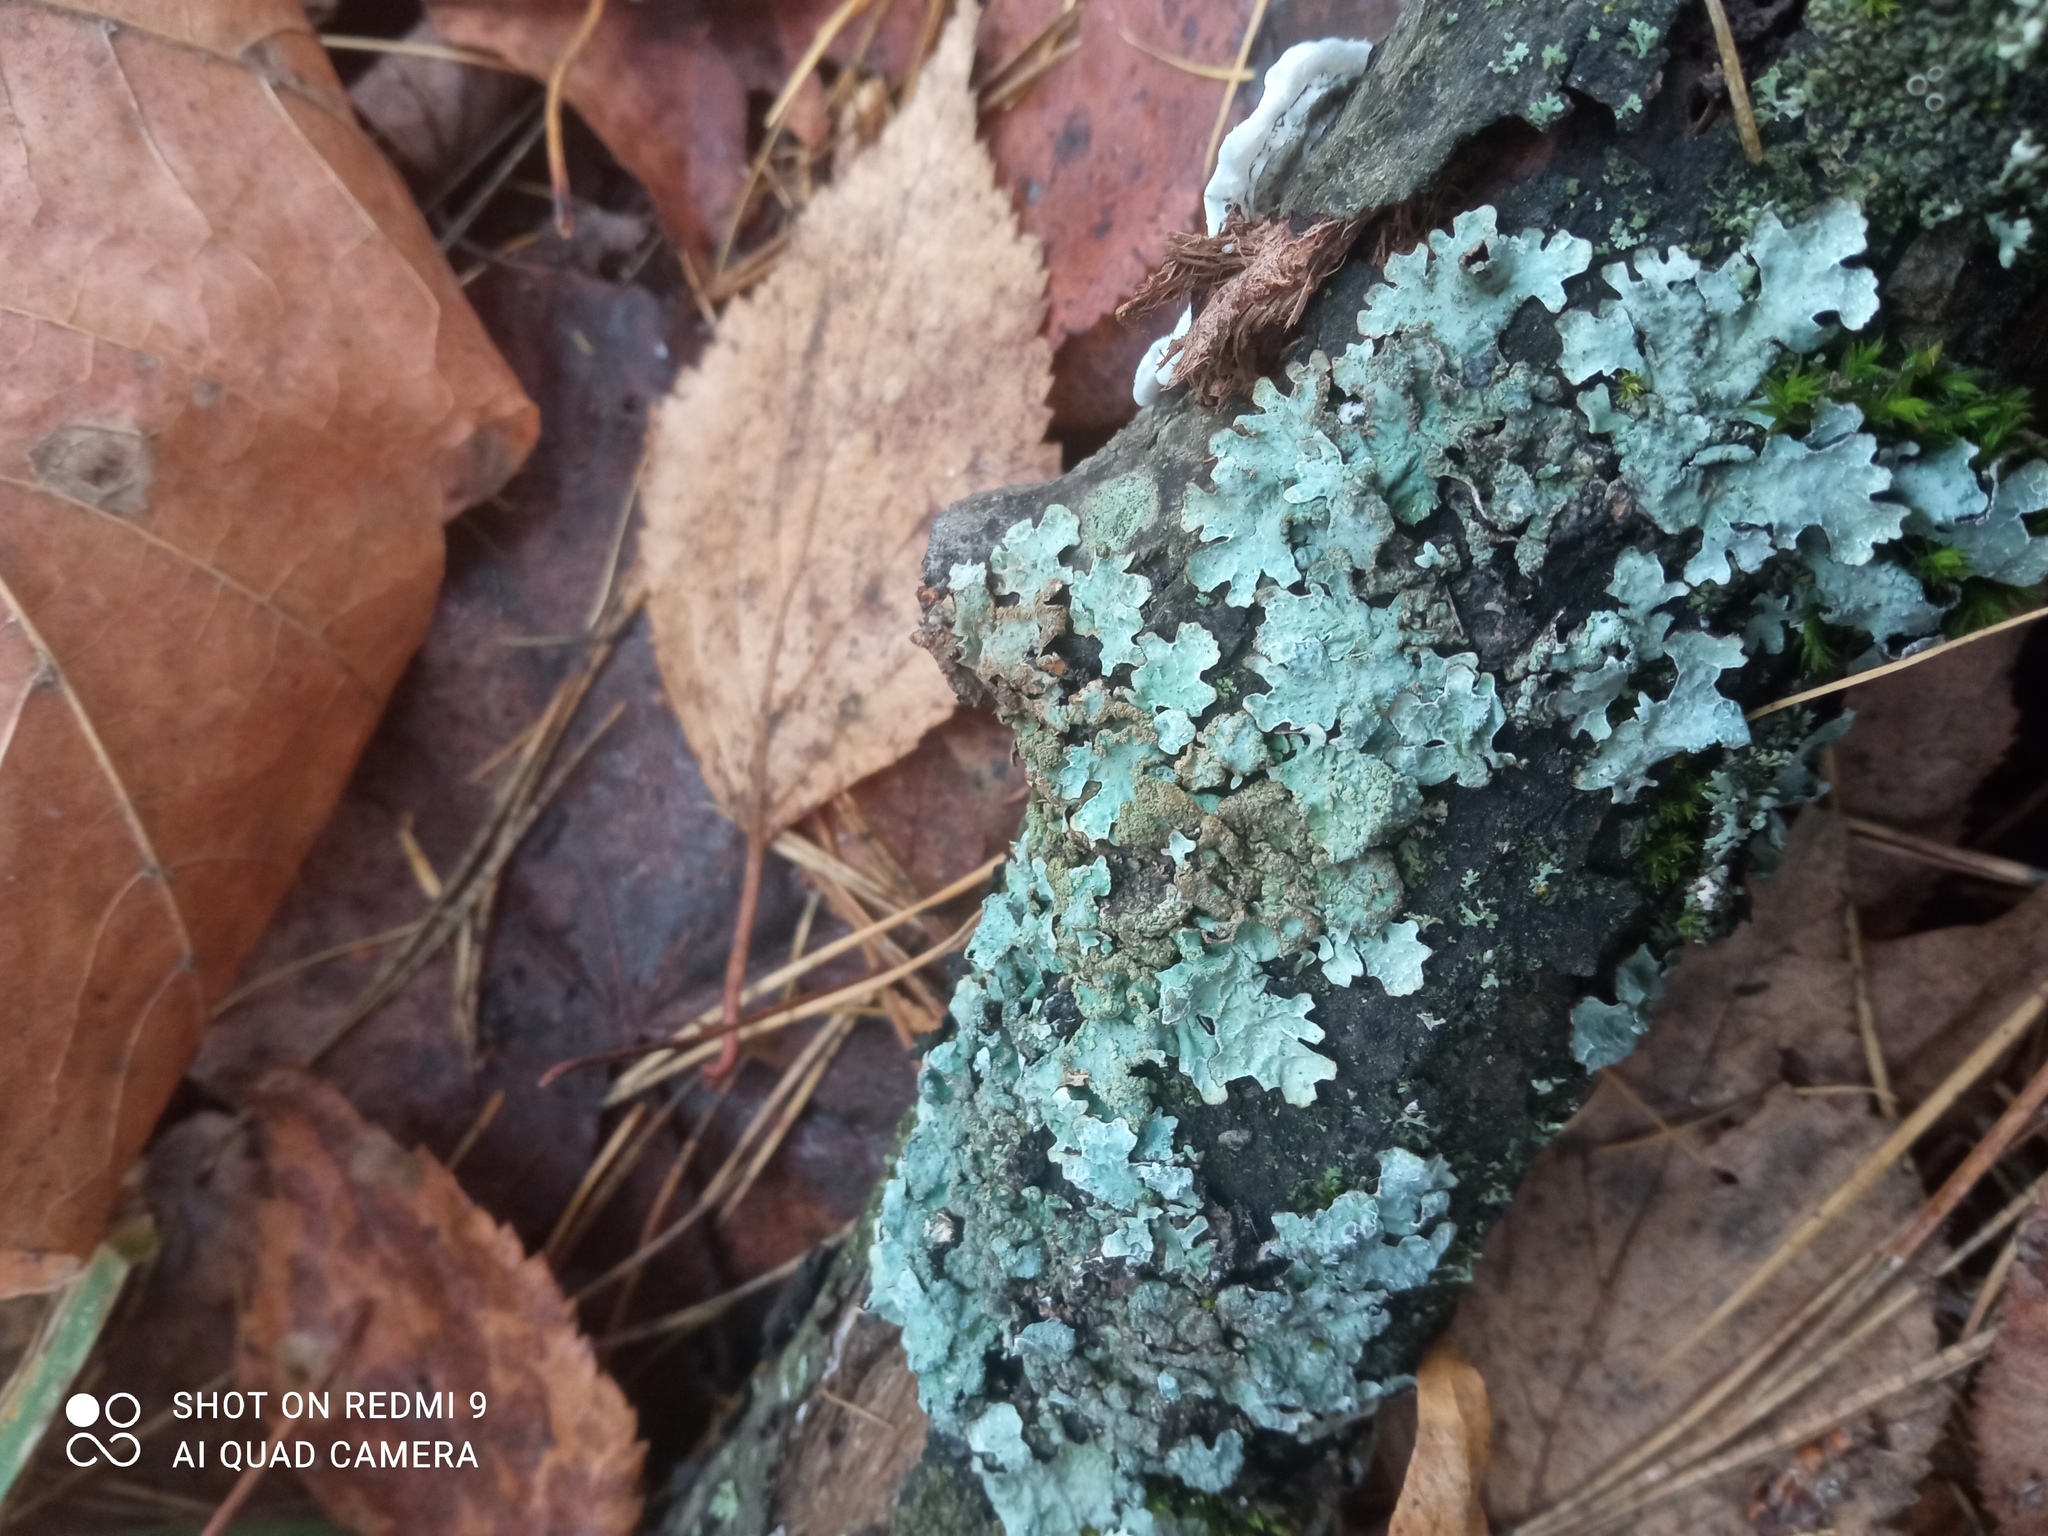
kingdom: Fungi
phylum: Ascomycota
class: Lecanoromycetes
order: Lecanorales
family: Parmeliaceae
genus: Parmelia
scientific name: Parmelia sulcata
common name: Netted shield lichen
